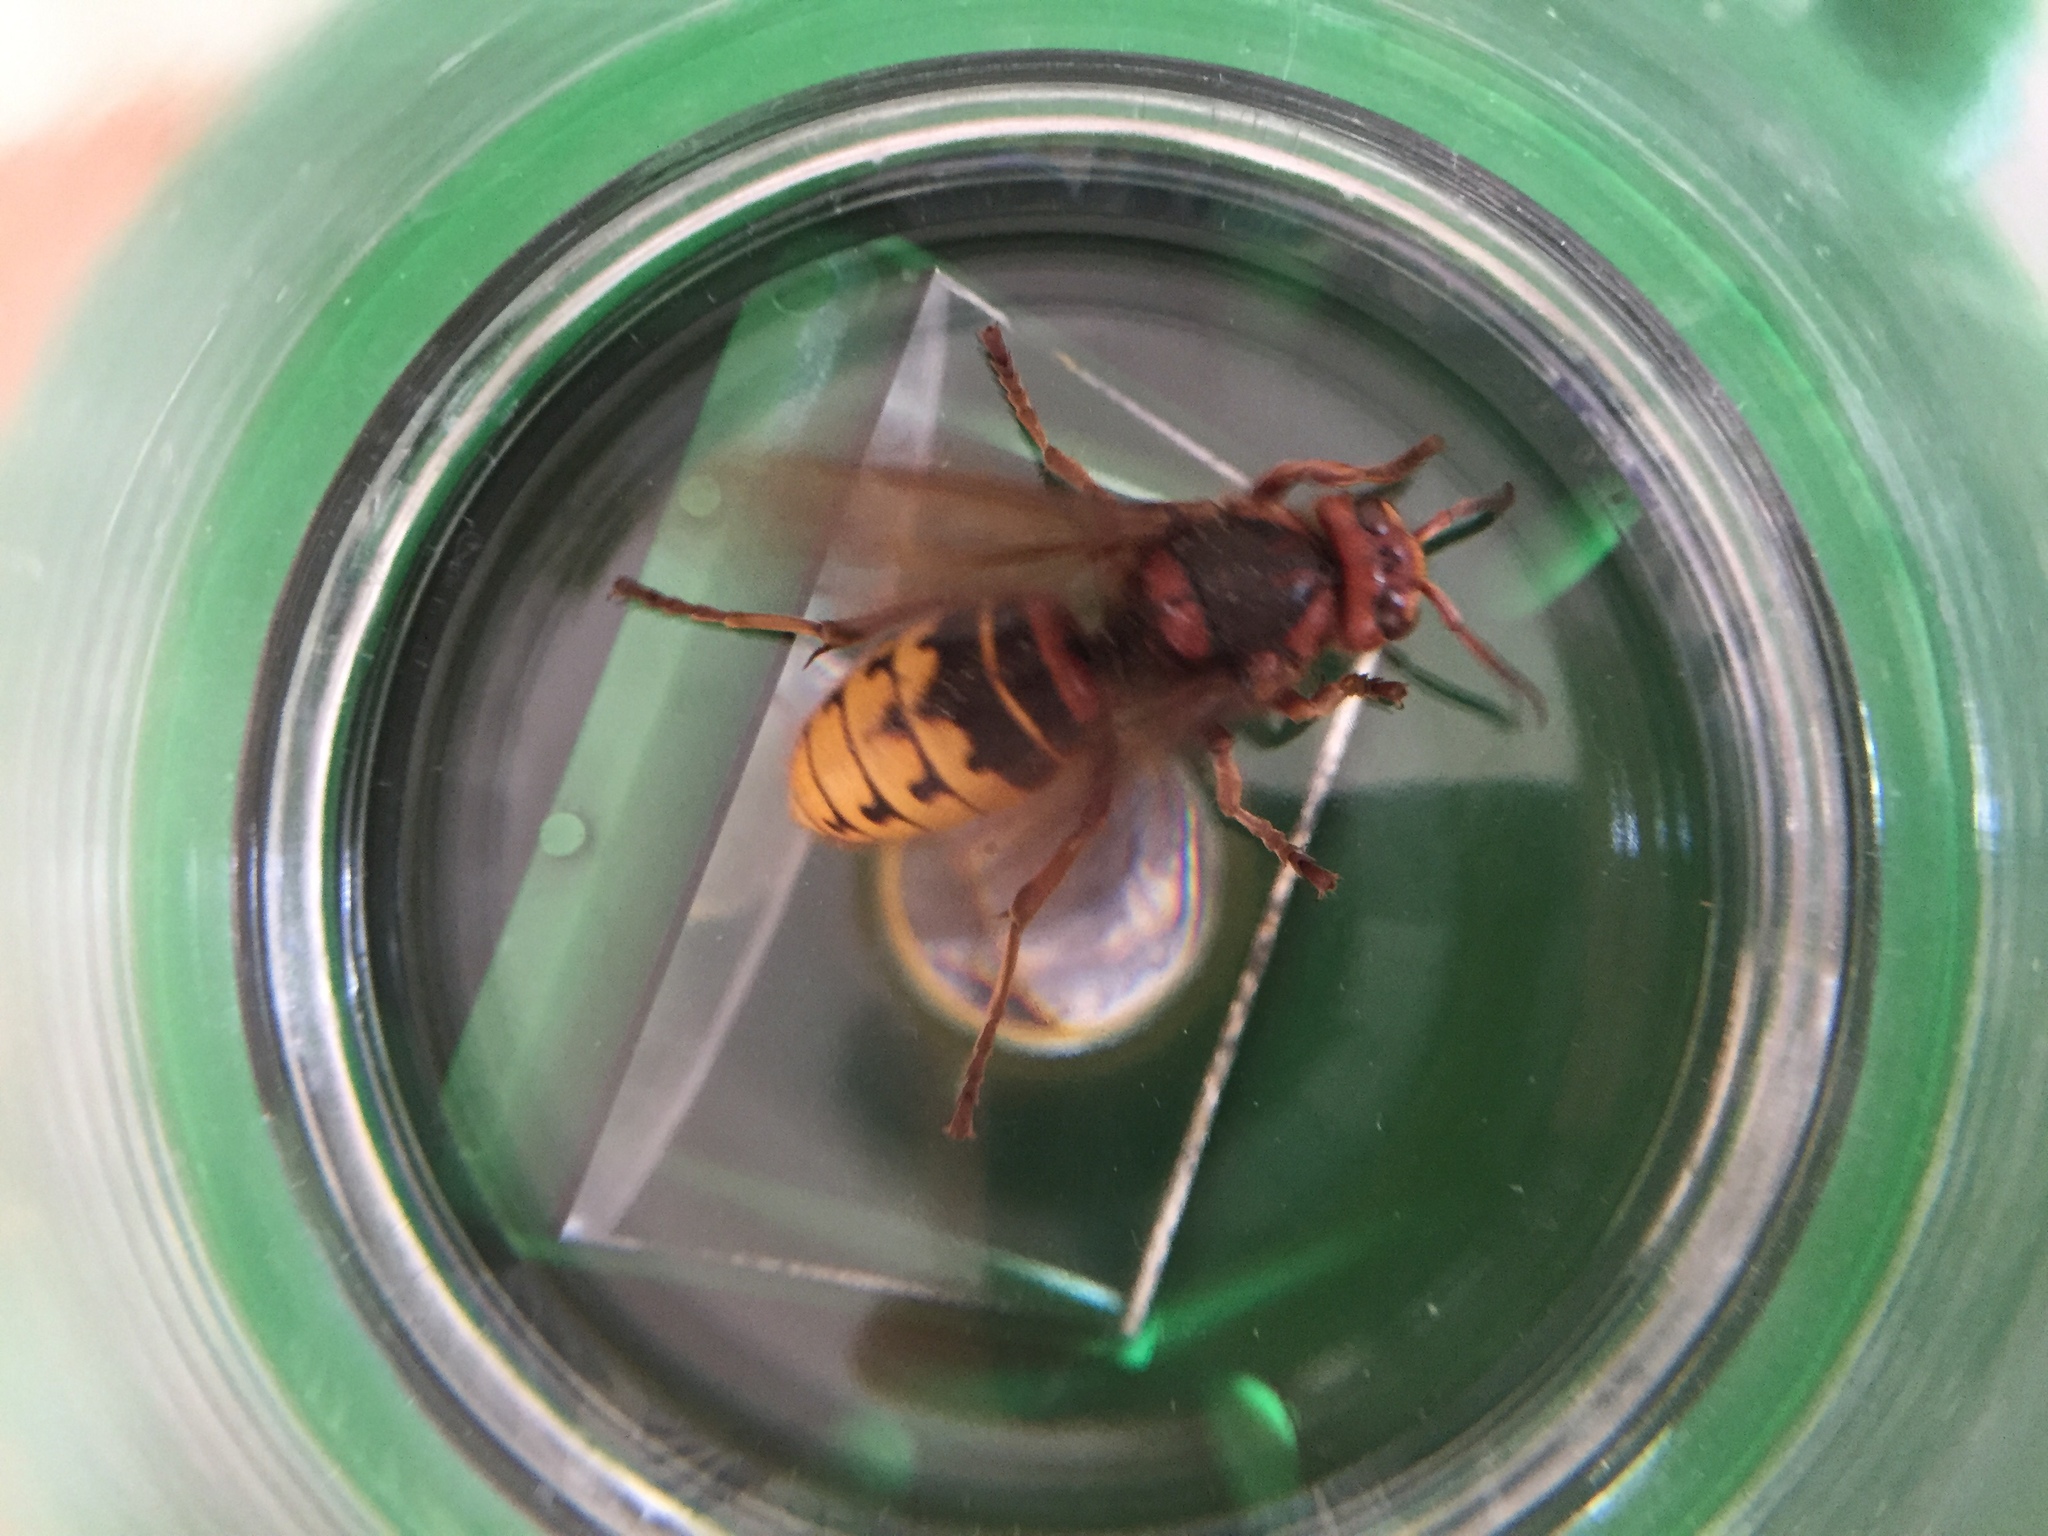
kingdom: Animalia
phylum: Arthropoda
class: Insecta
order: Hymenoptera
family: Vespidae
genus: Vespa
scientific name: Vespa crabro
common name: Hornet
